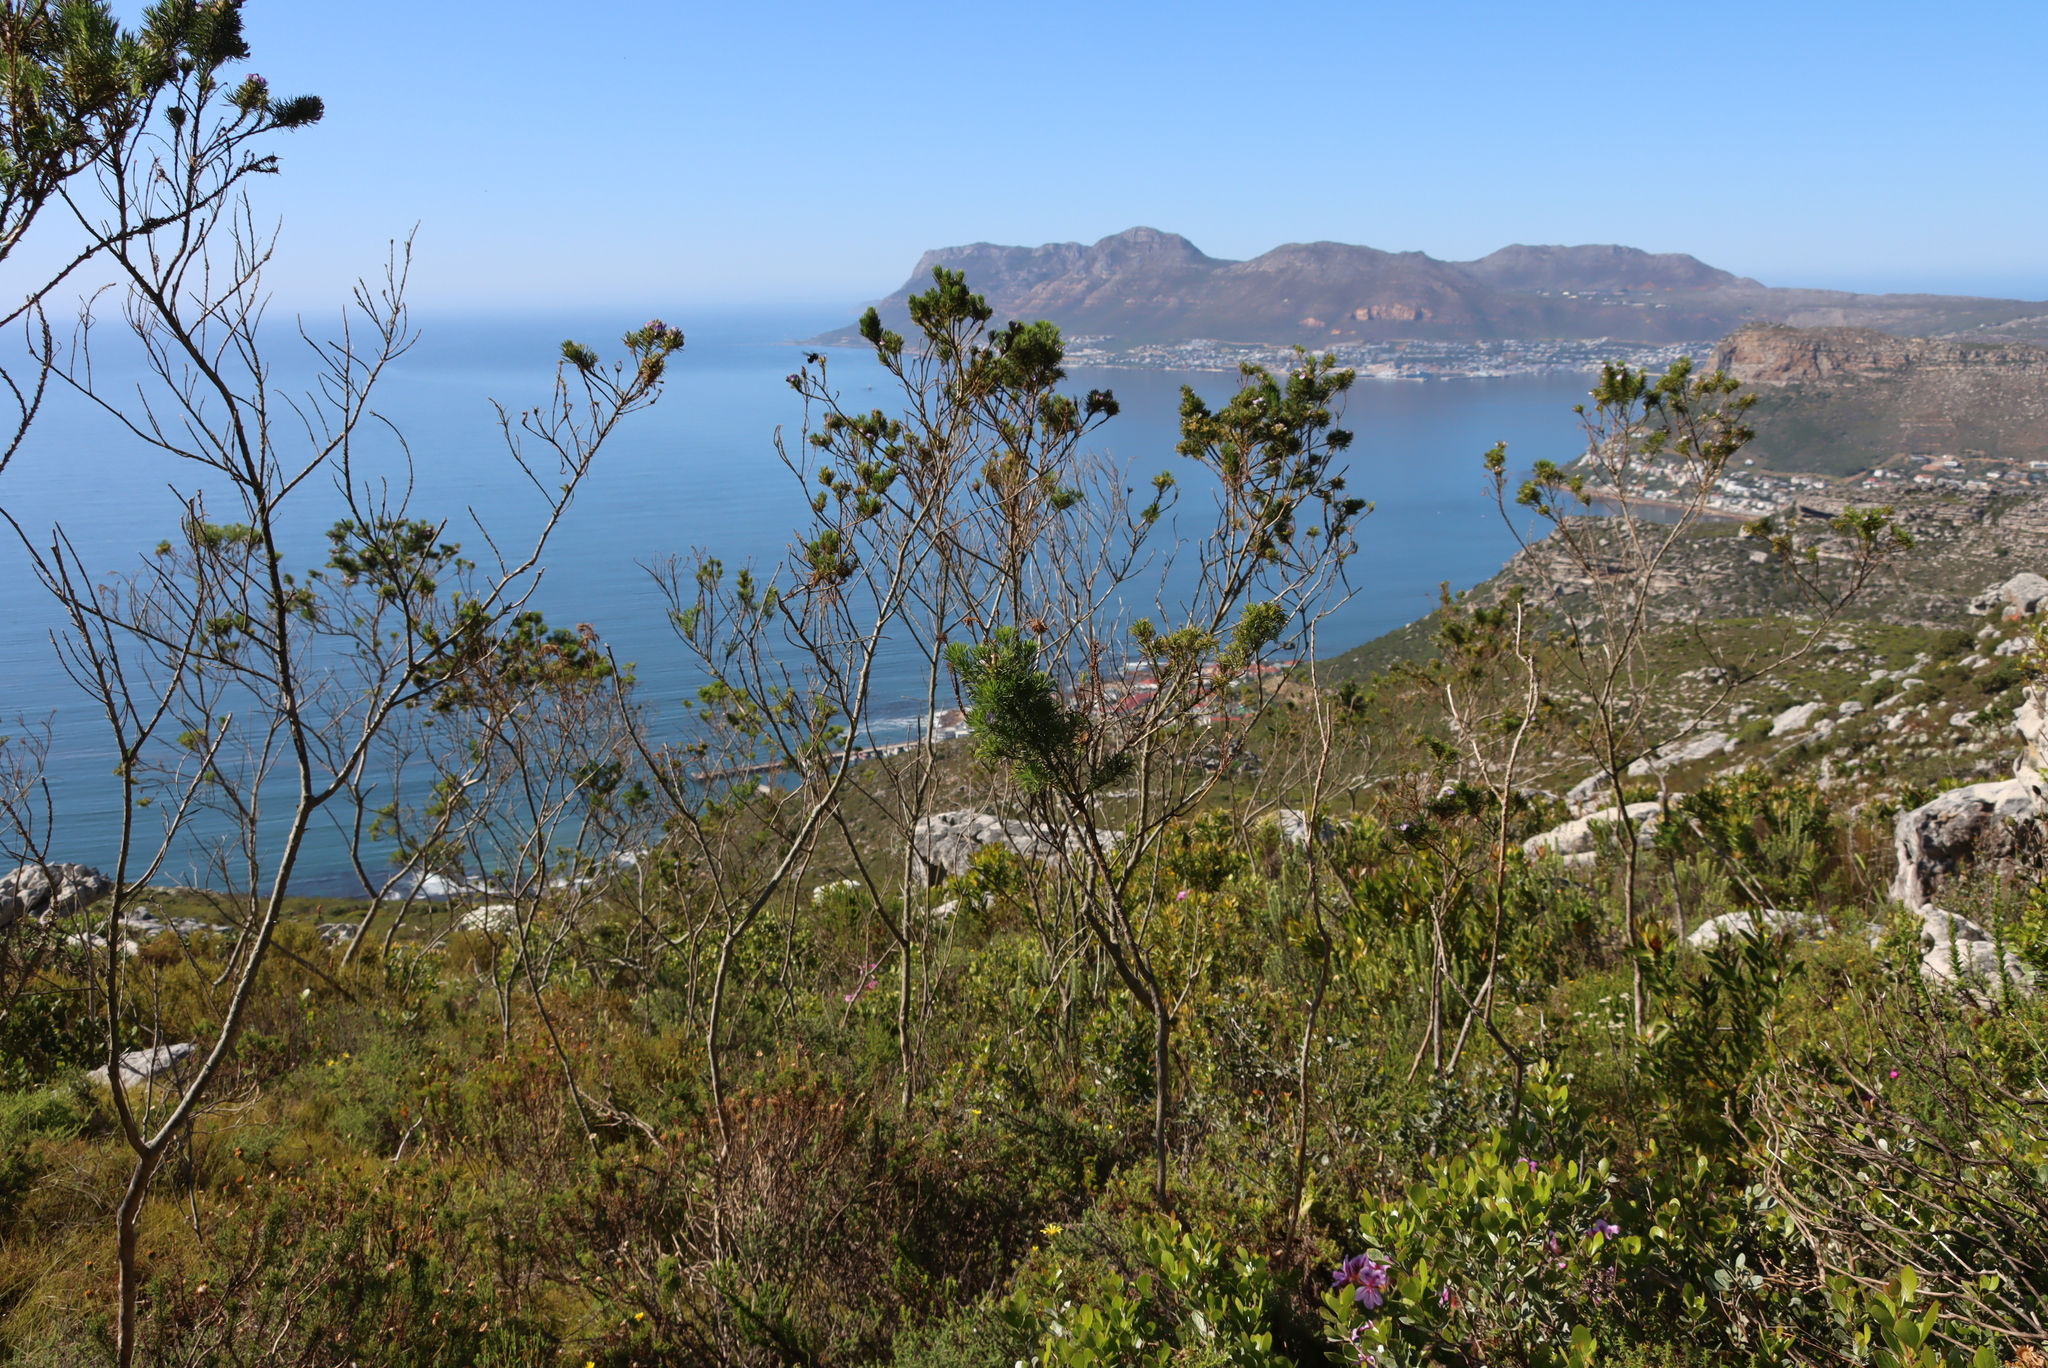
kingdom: Plantae
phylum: Tracheophyta
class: Magnoliopsida
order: Fabales
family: Fabaceae
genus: Psoralea
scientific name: Psoralea pinnata
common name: African scurfpea
